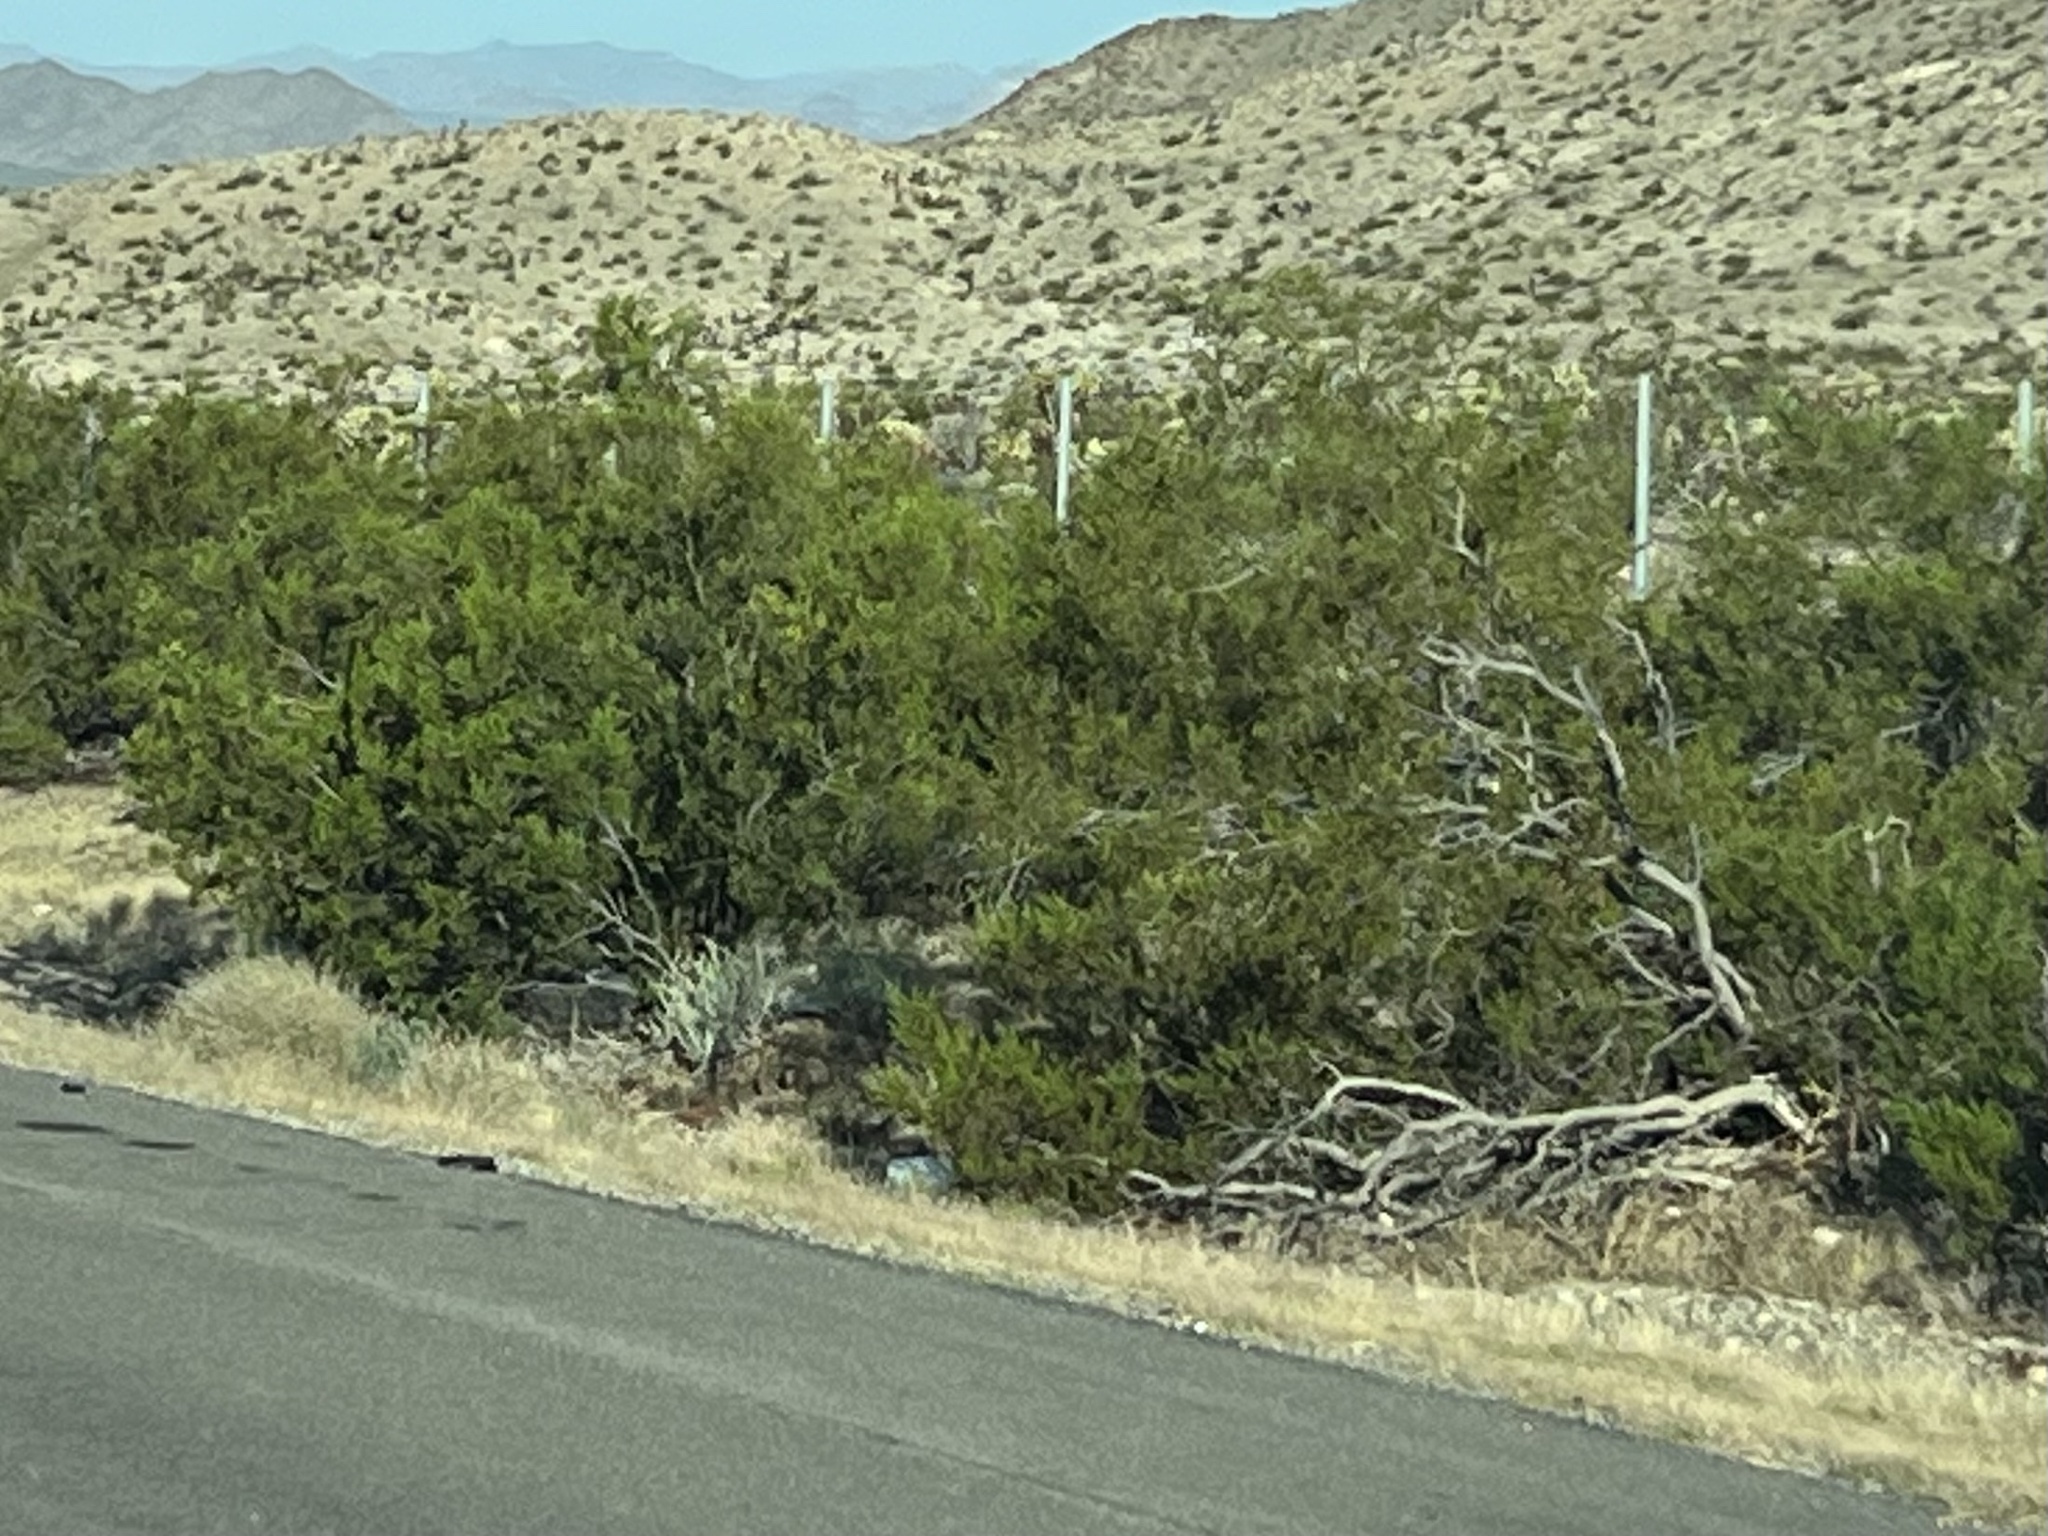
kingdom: Plantae
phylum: Tracheophyta
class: Magnoliopsida
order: Zygophyllales
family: Zygophyllaceae
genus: Larrea
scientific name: Larrea tridentata
